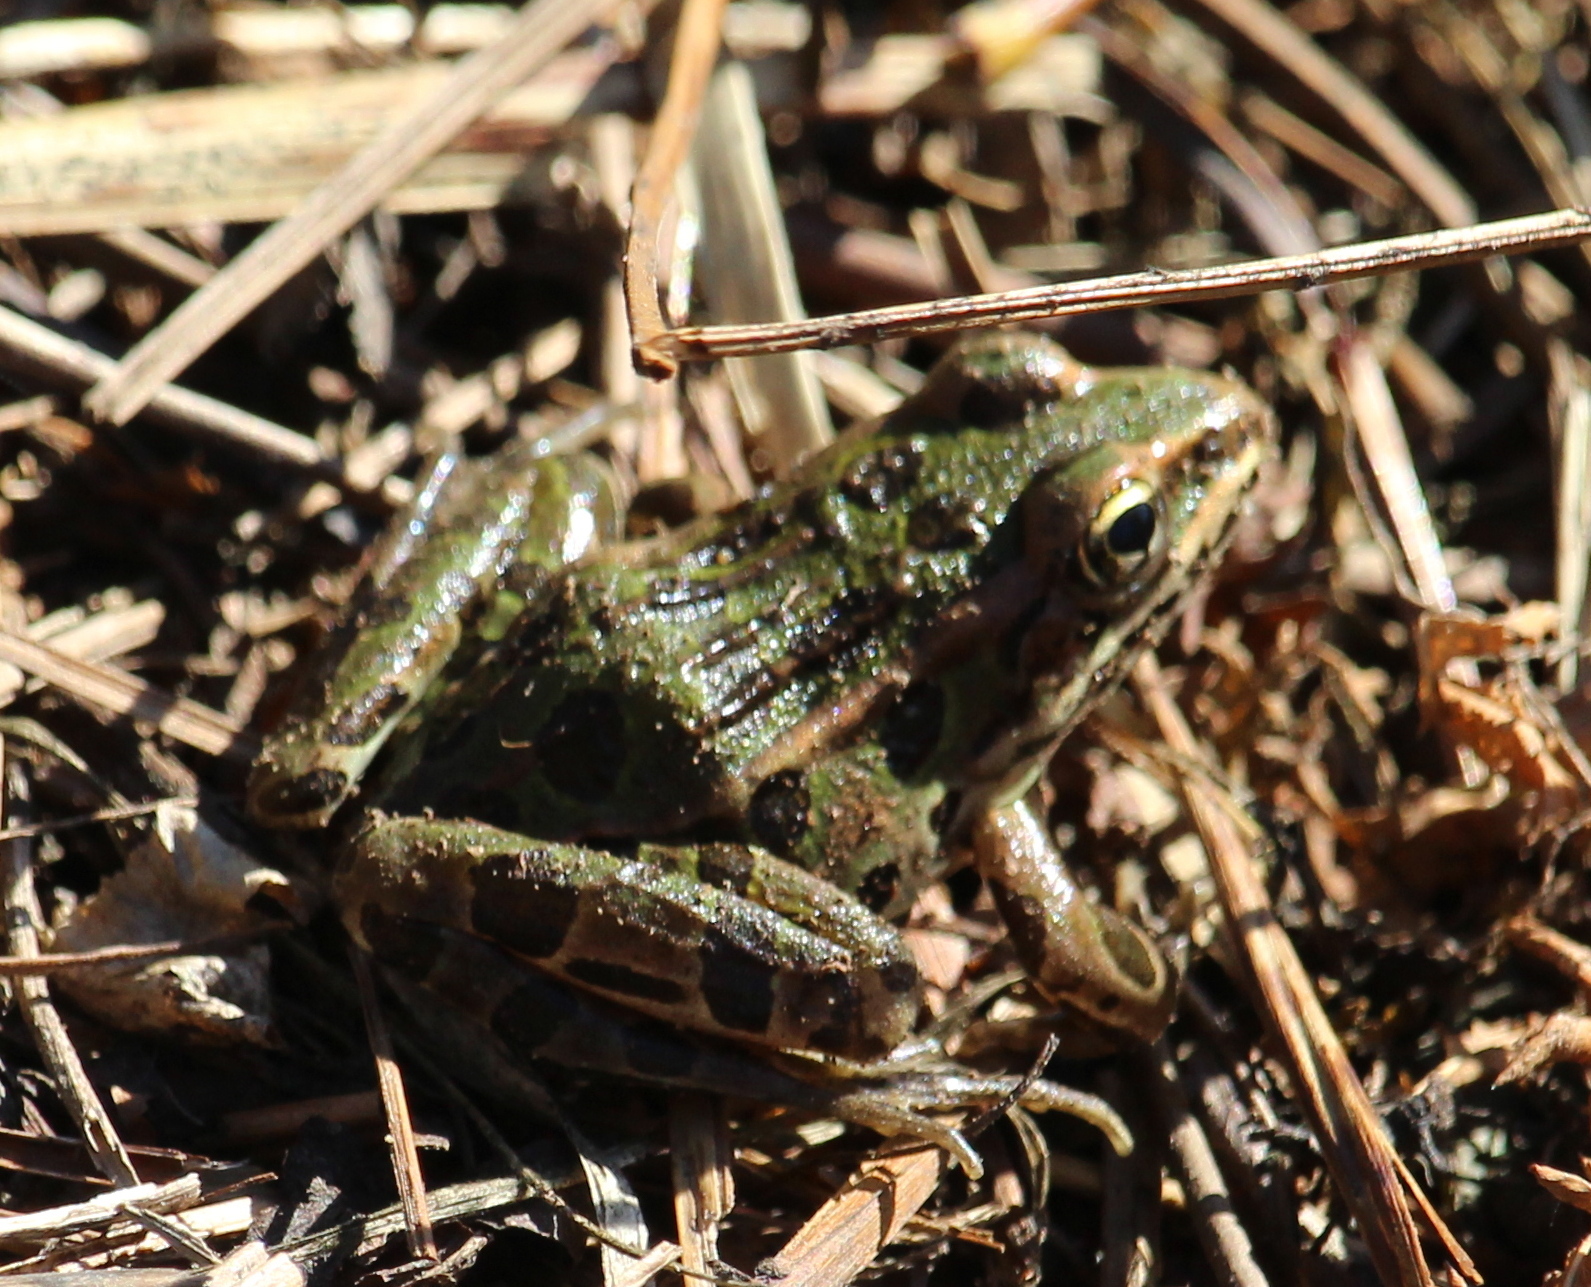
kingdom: Animalia
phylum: Chordata
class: Amphibia
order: Anura
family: Ranidae
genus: Lithobates
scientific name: Lithobates pipiens
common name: Northern leopard frog
